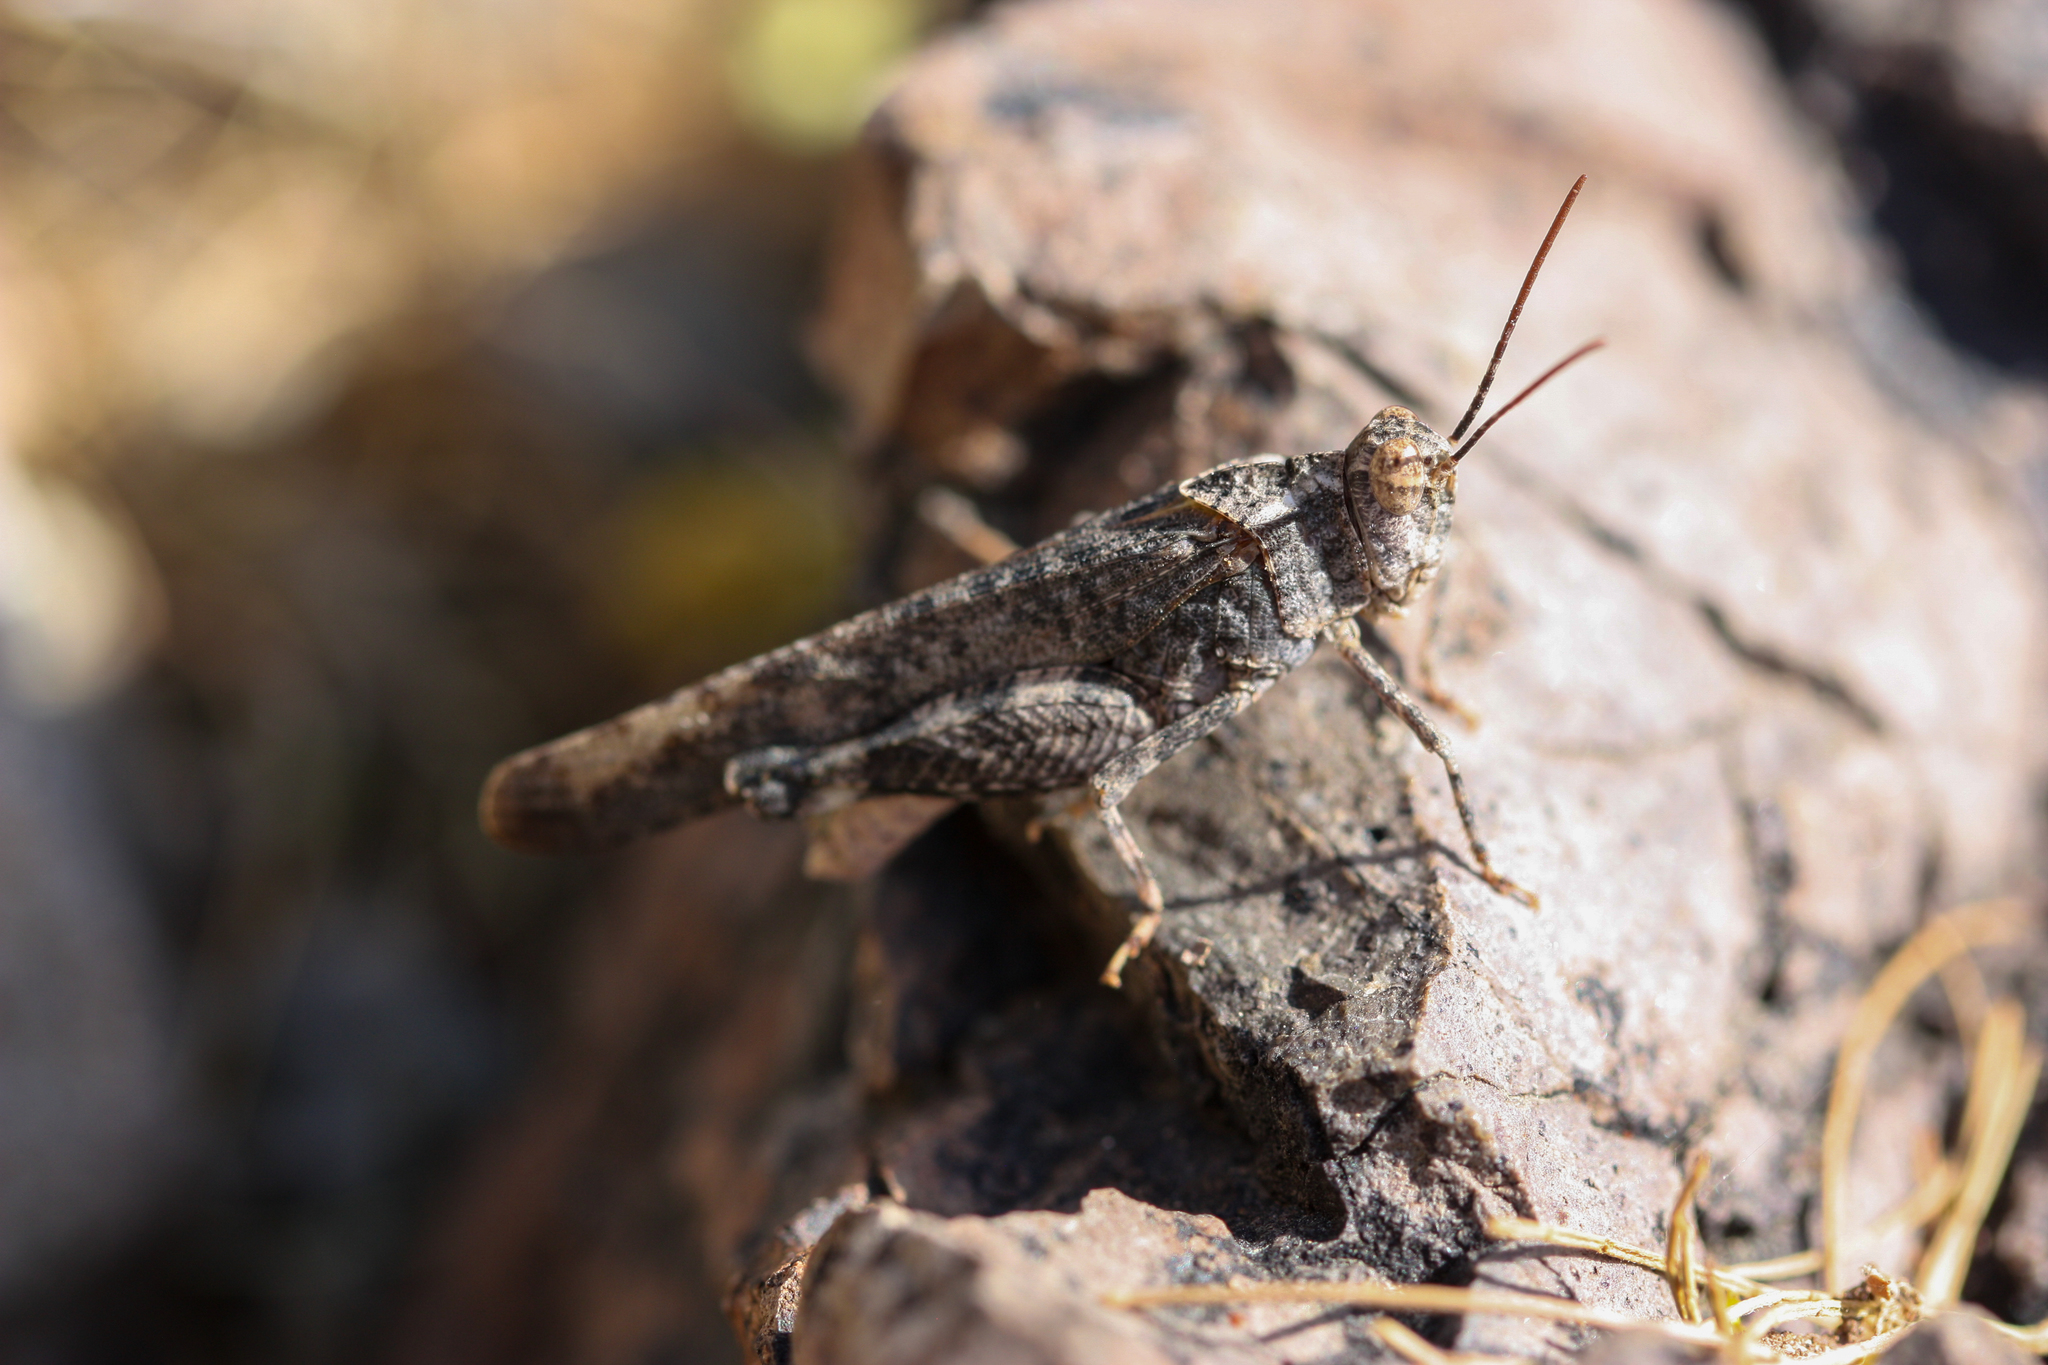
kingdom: Animalia
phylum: Arthropoda
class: Insecta
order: Orthoptera
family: Acrididae
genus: Lactista
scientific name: Lactista gibbosus
